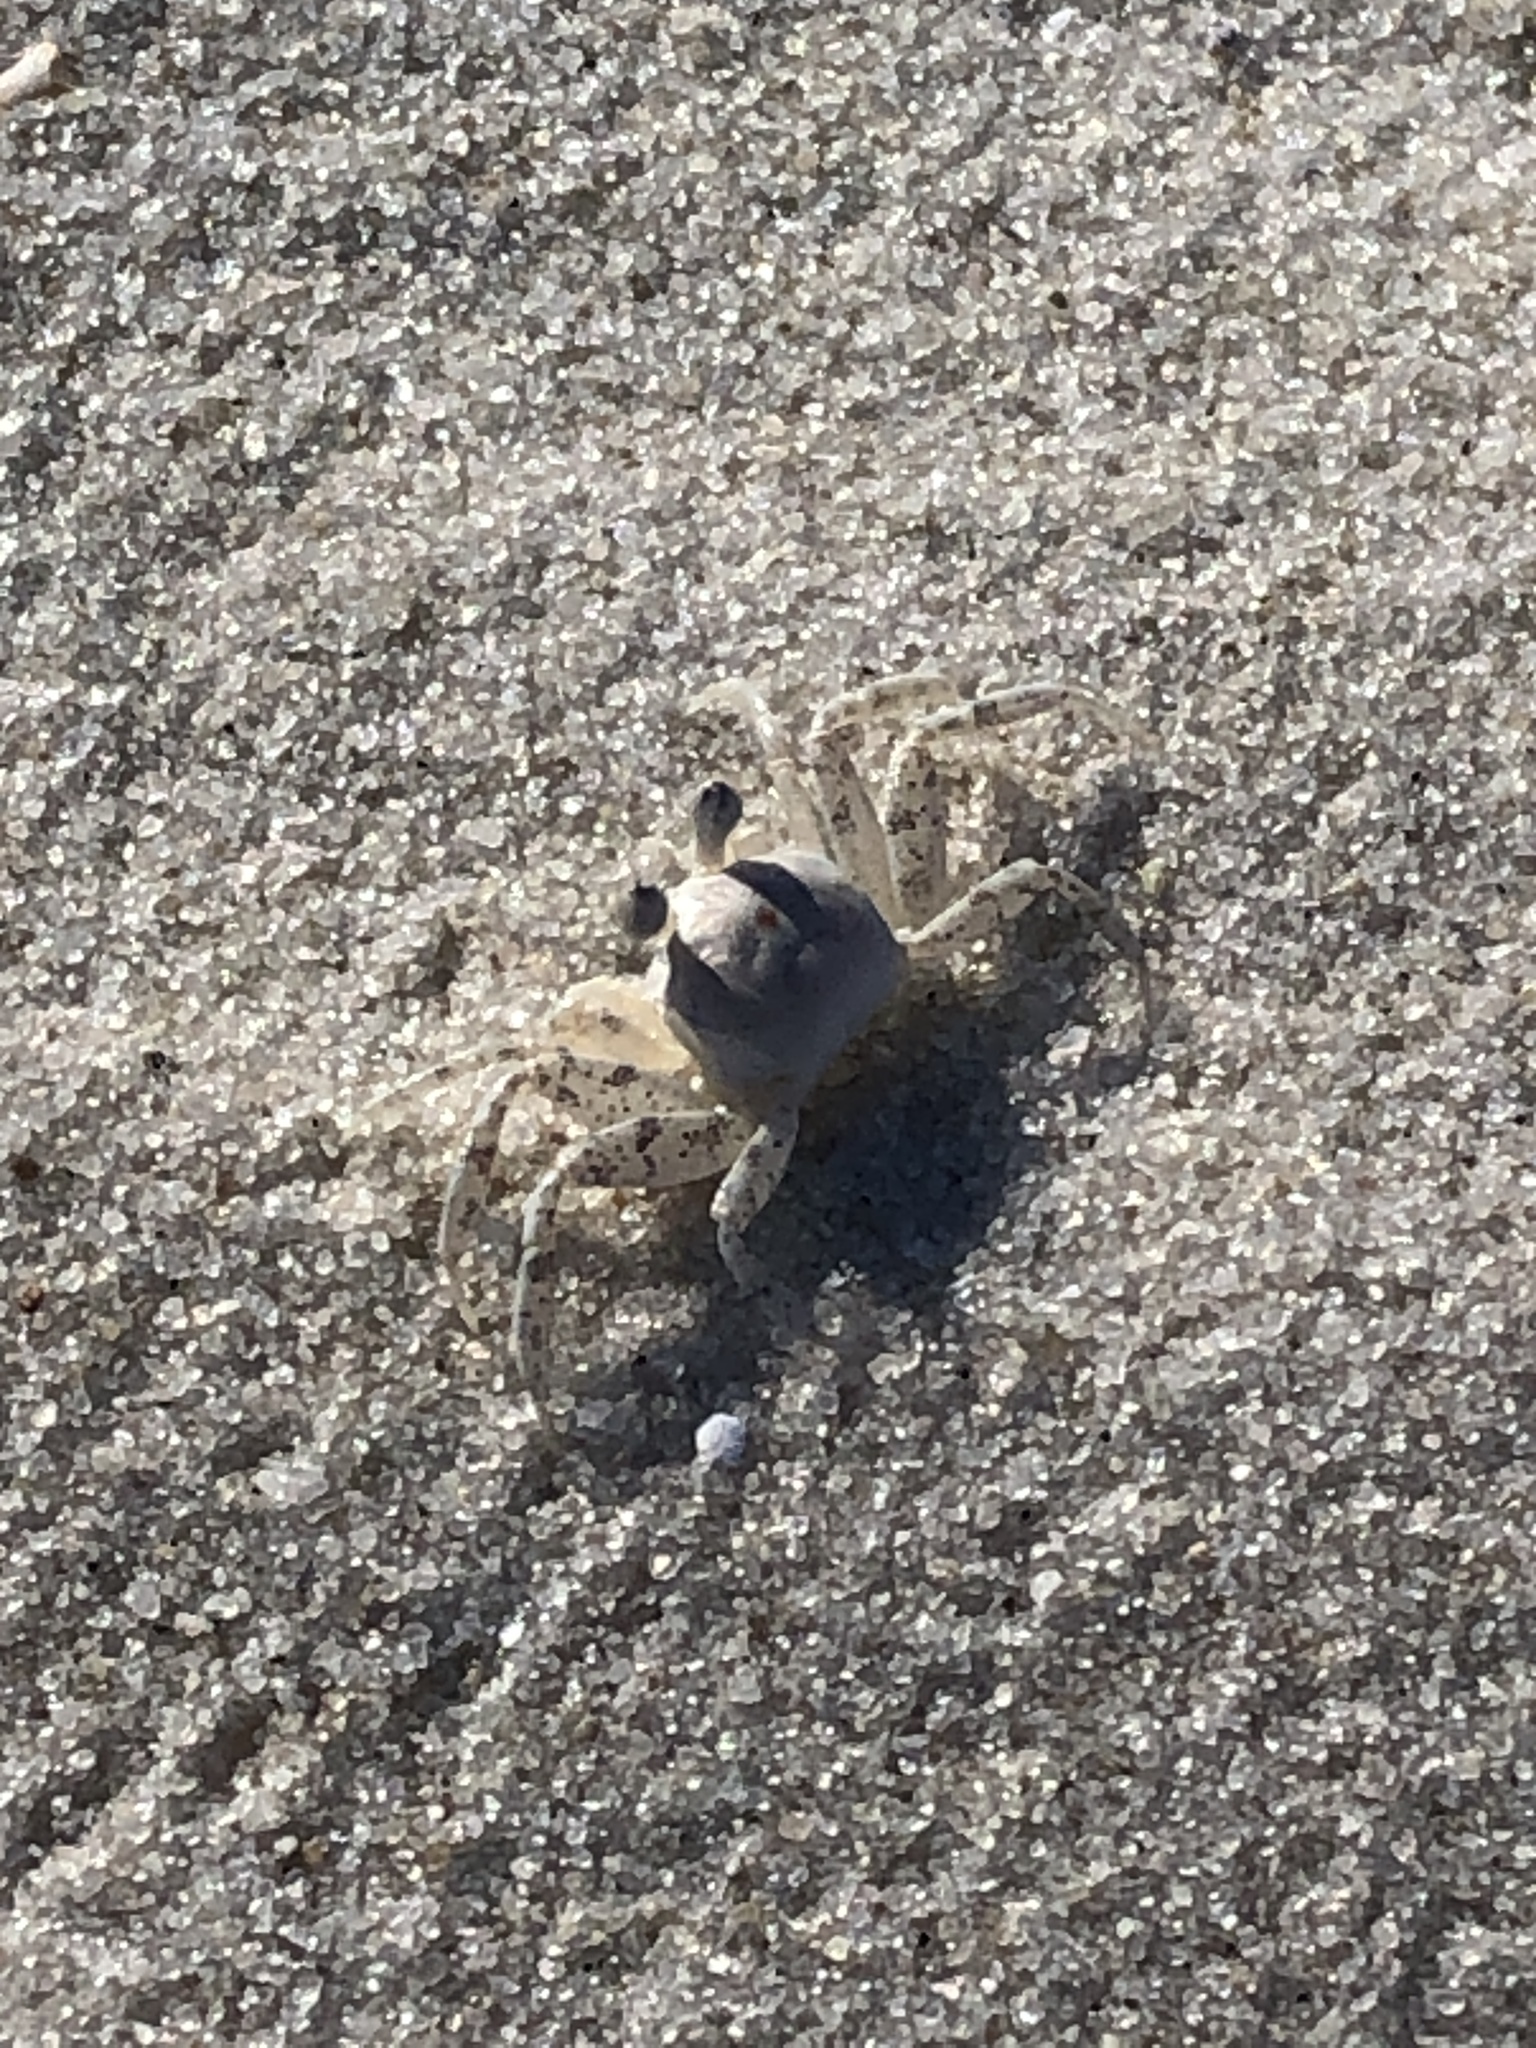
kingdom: Animalia
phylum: Arthropoda
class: Malacostraca
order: Decapoda
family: Ocypodidae
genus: Ocypode
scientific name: Ocypode quadrata
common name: Ghost crab
